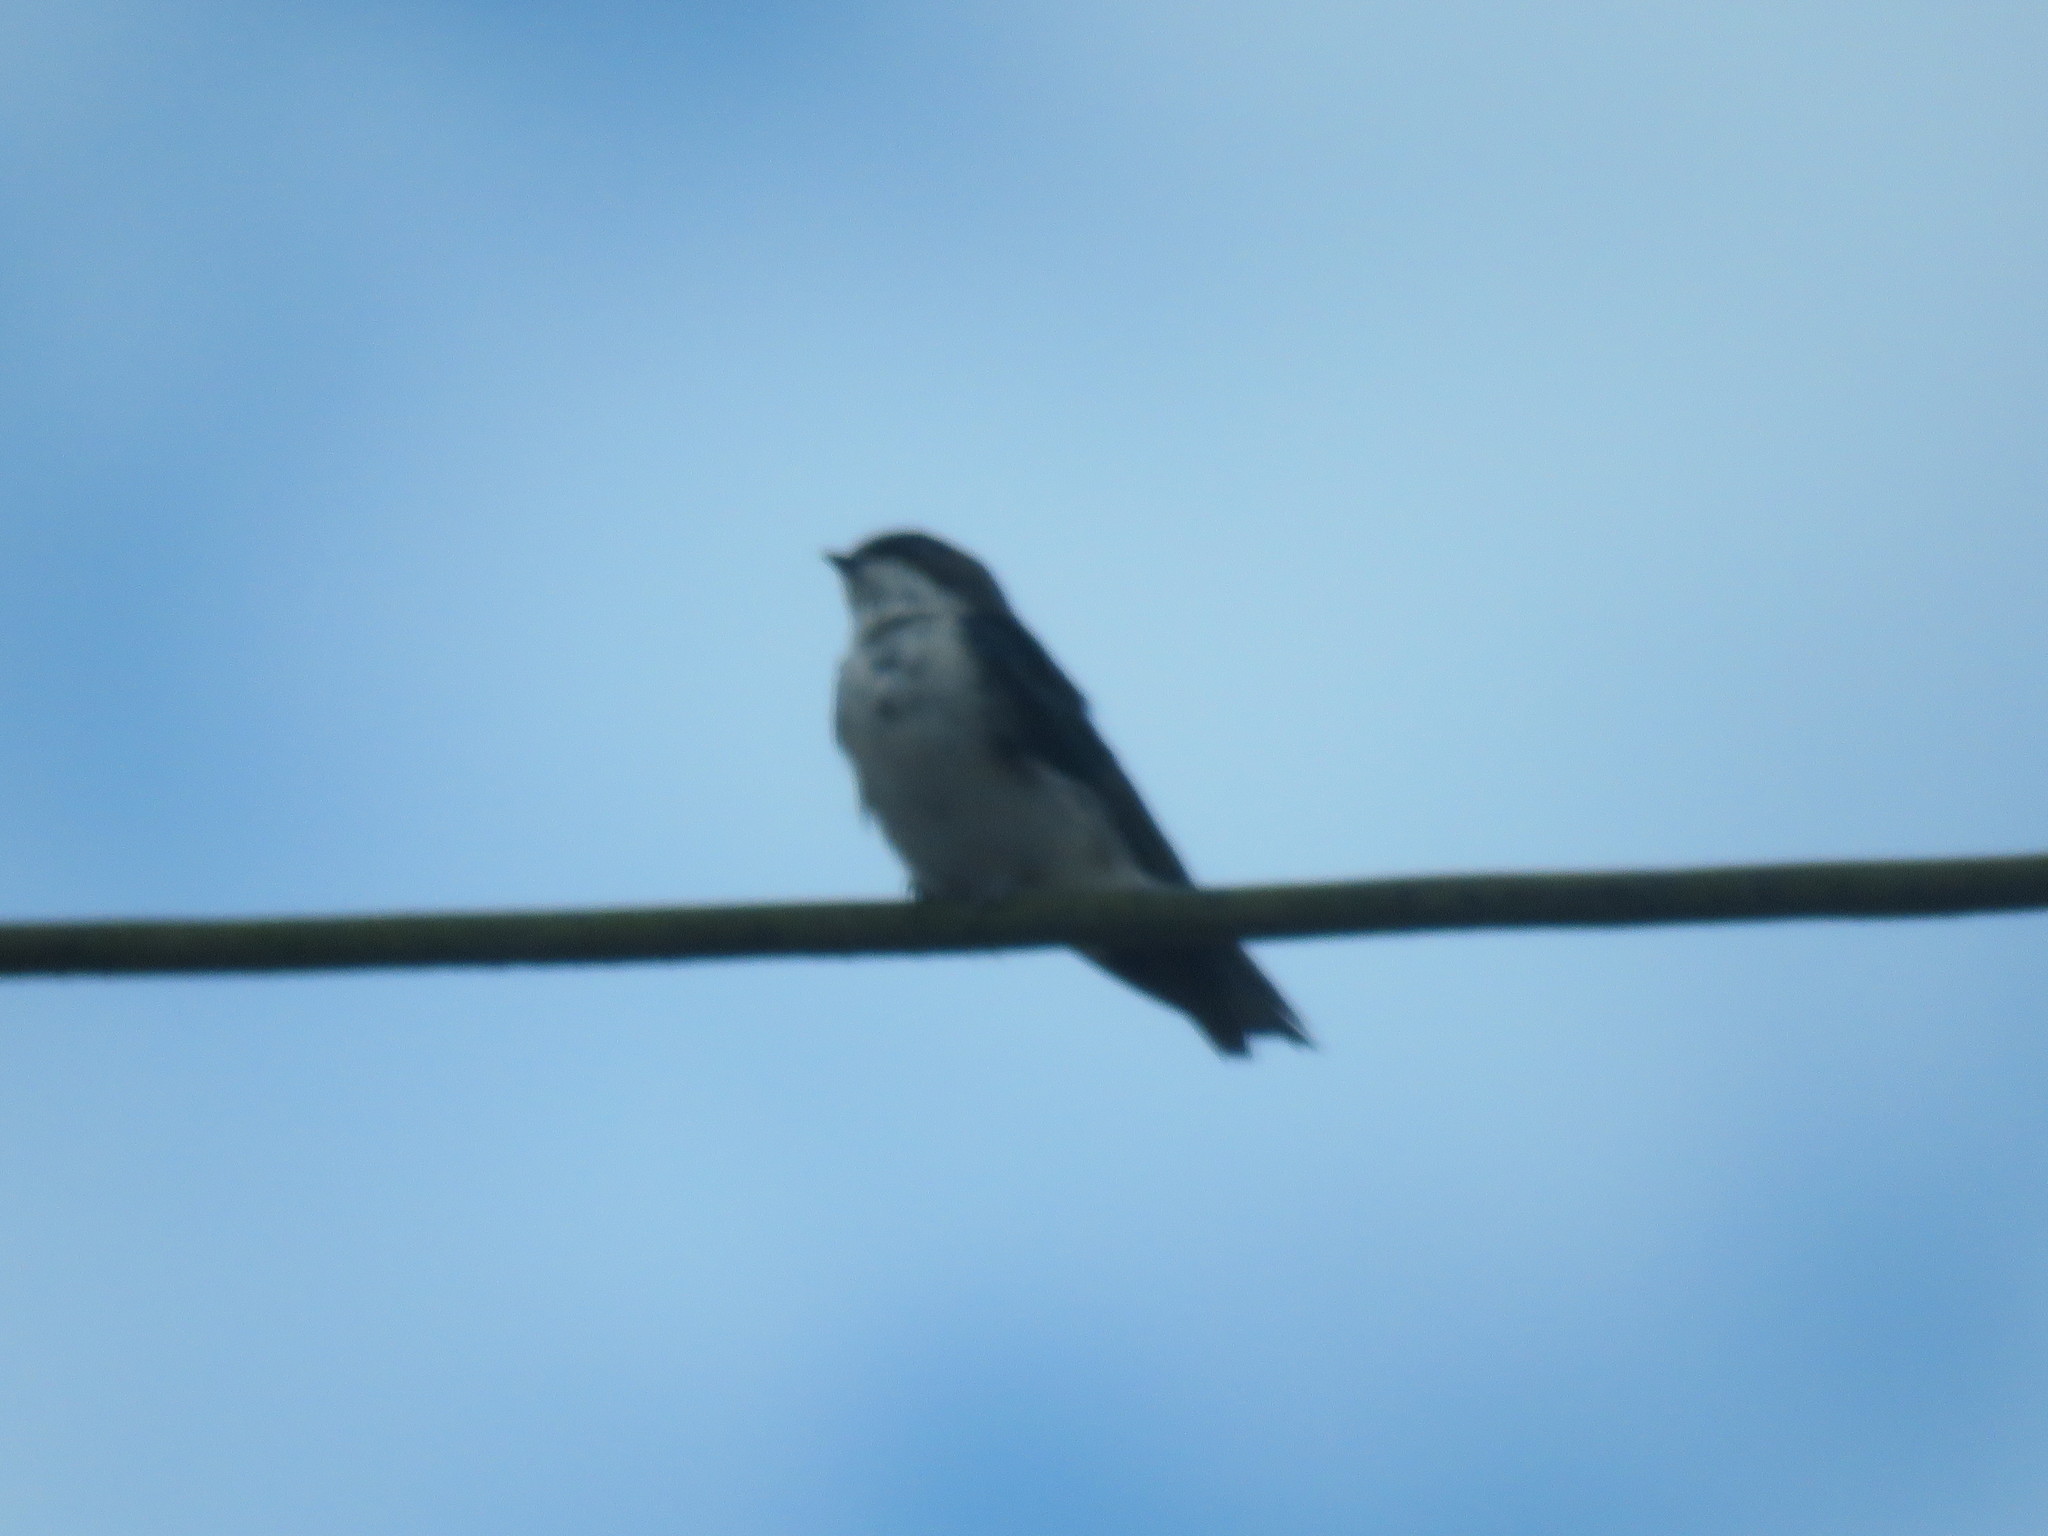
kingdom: Animalia
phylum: Chordata
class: Aves
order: Passeriformes
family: Hirundinidae
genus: Notiochelidon
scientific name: Notiochelidon cyanoleuca
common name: Blue-and-white swallow
